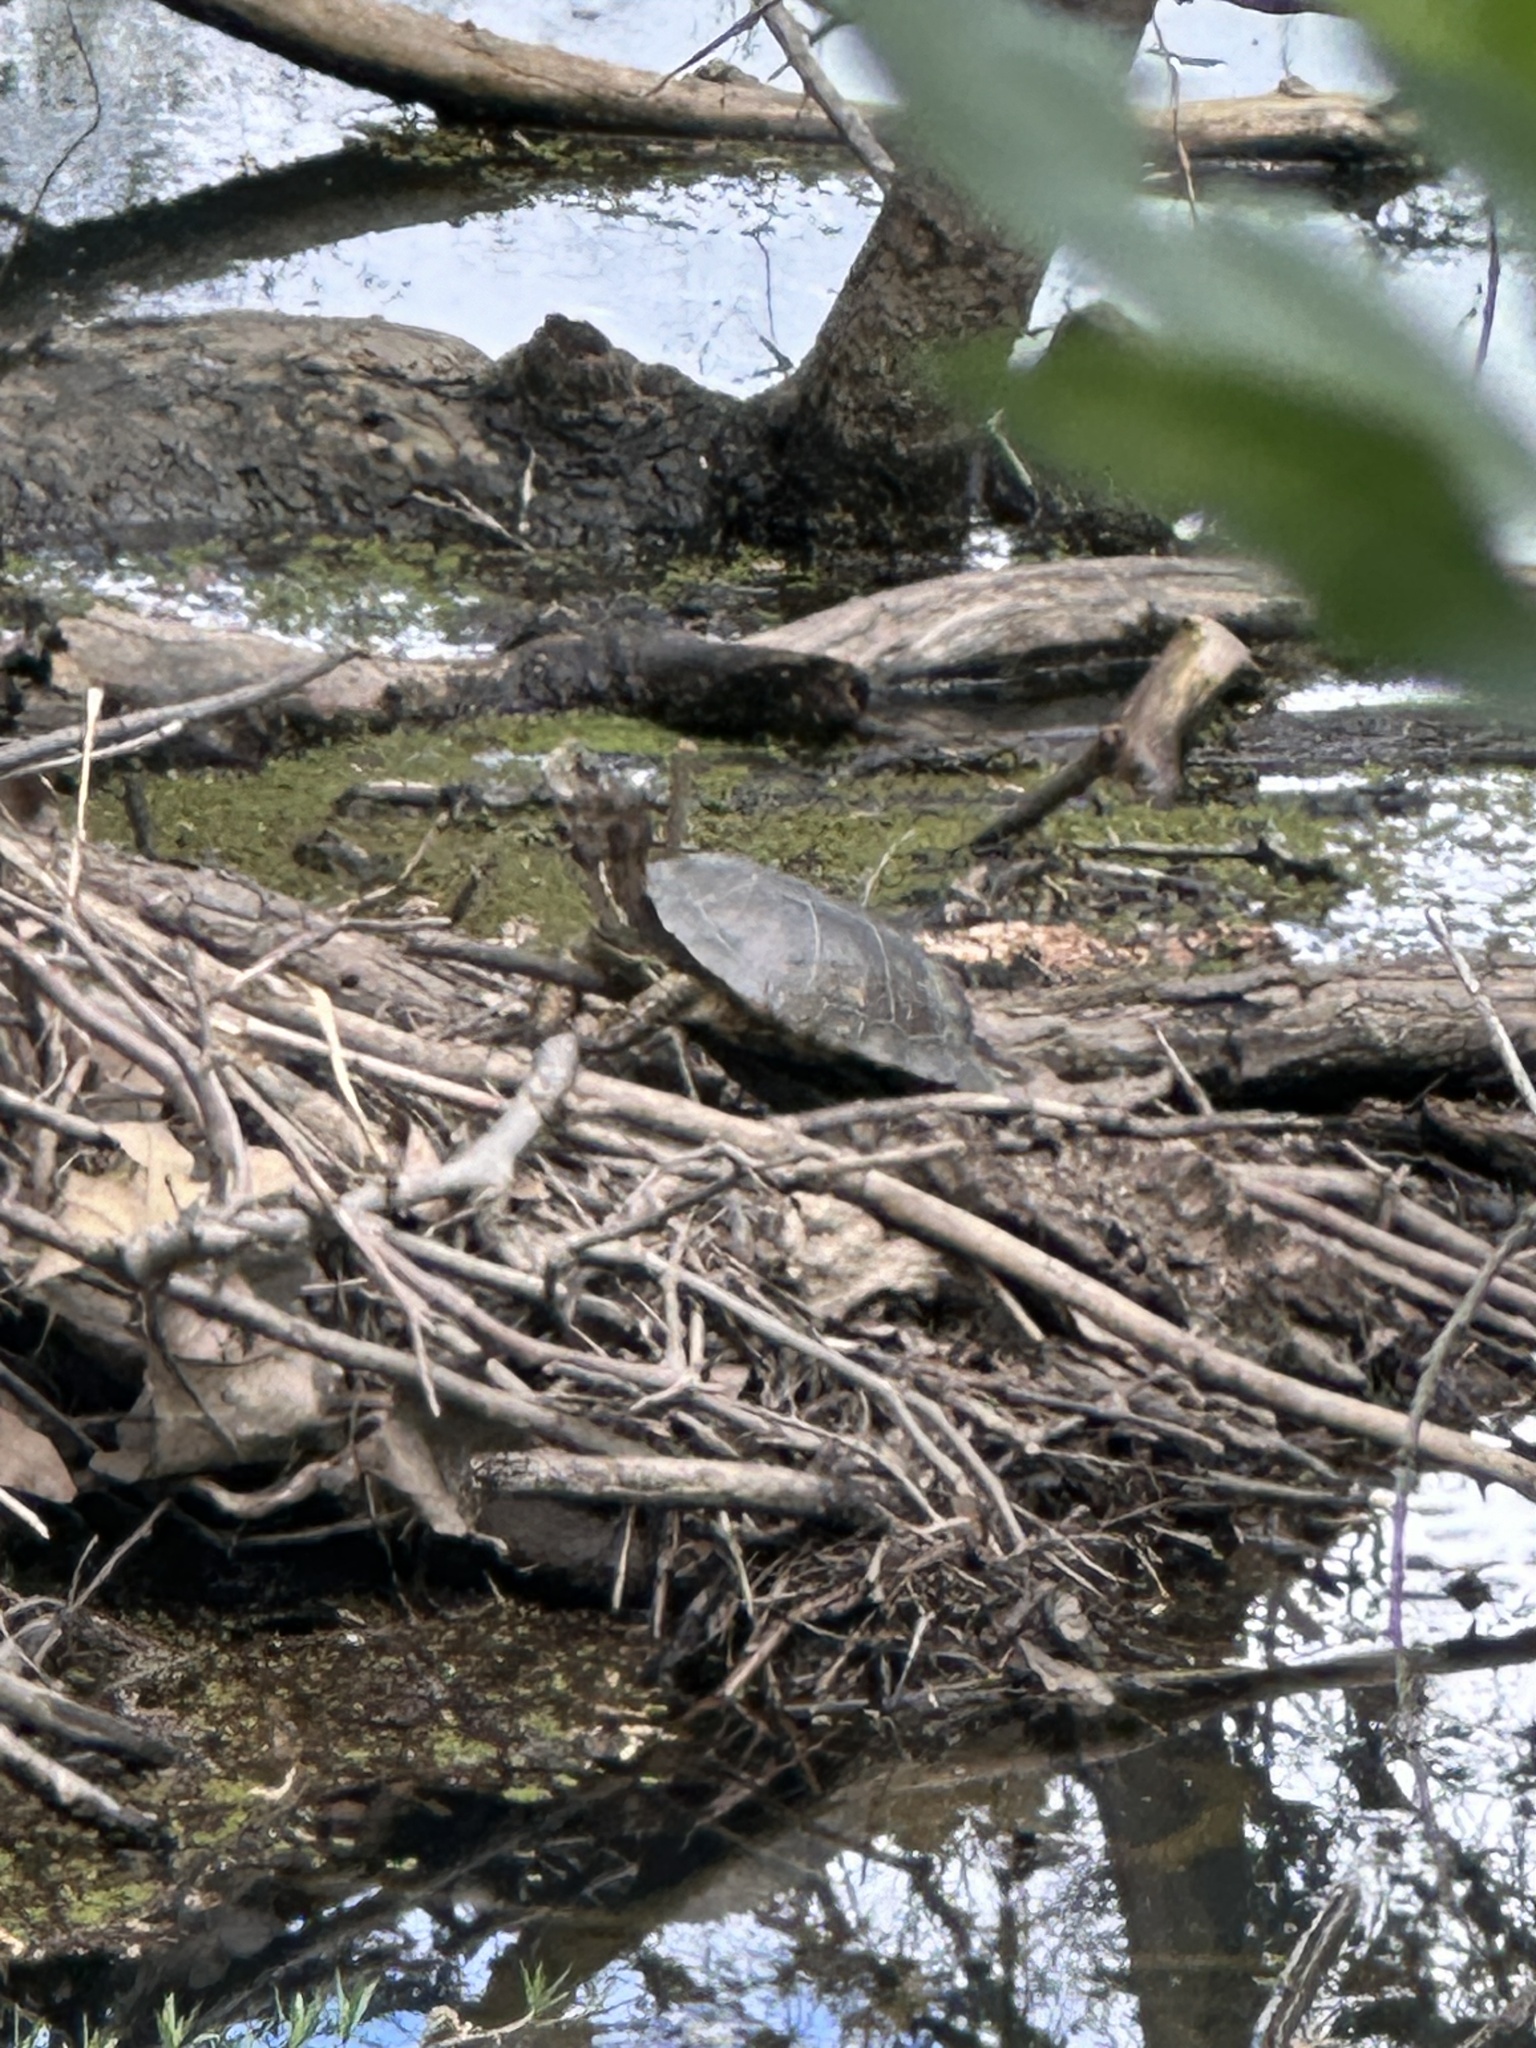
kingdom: Animalia
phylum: Chordata
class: Testudines
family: Emydidae
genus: Actinemys
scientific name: Actinemys marmorata
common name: Western pond turtle
